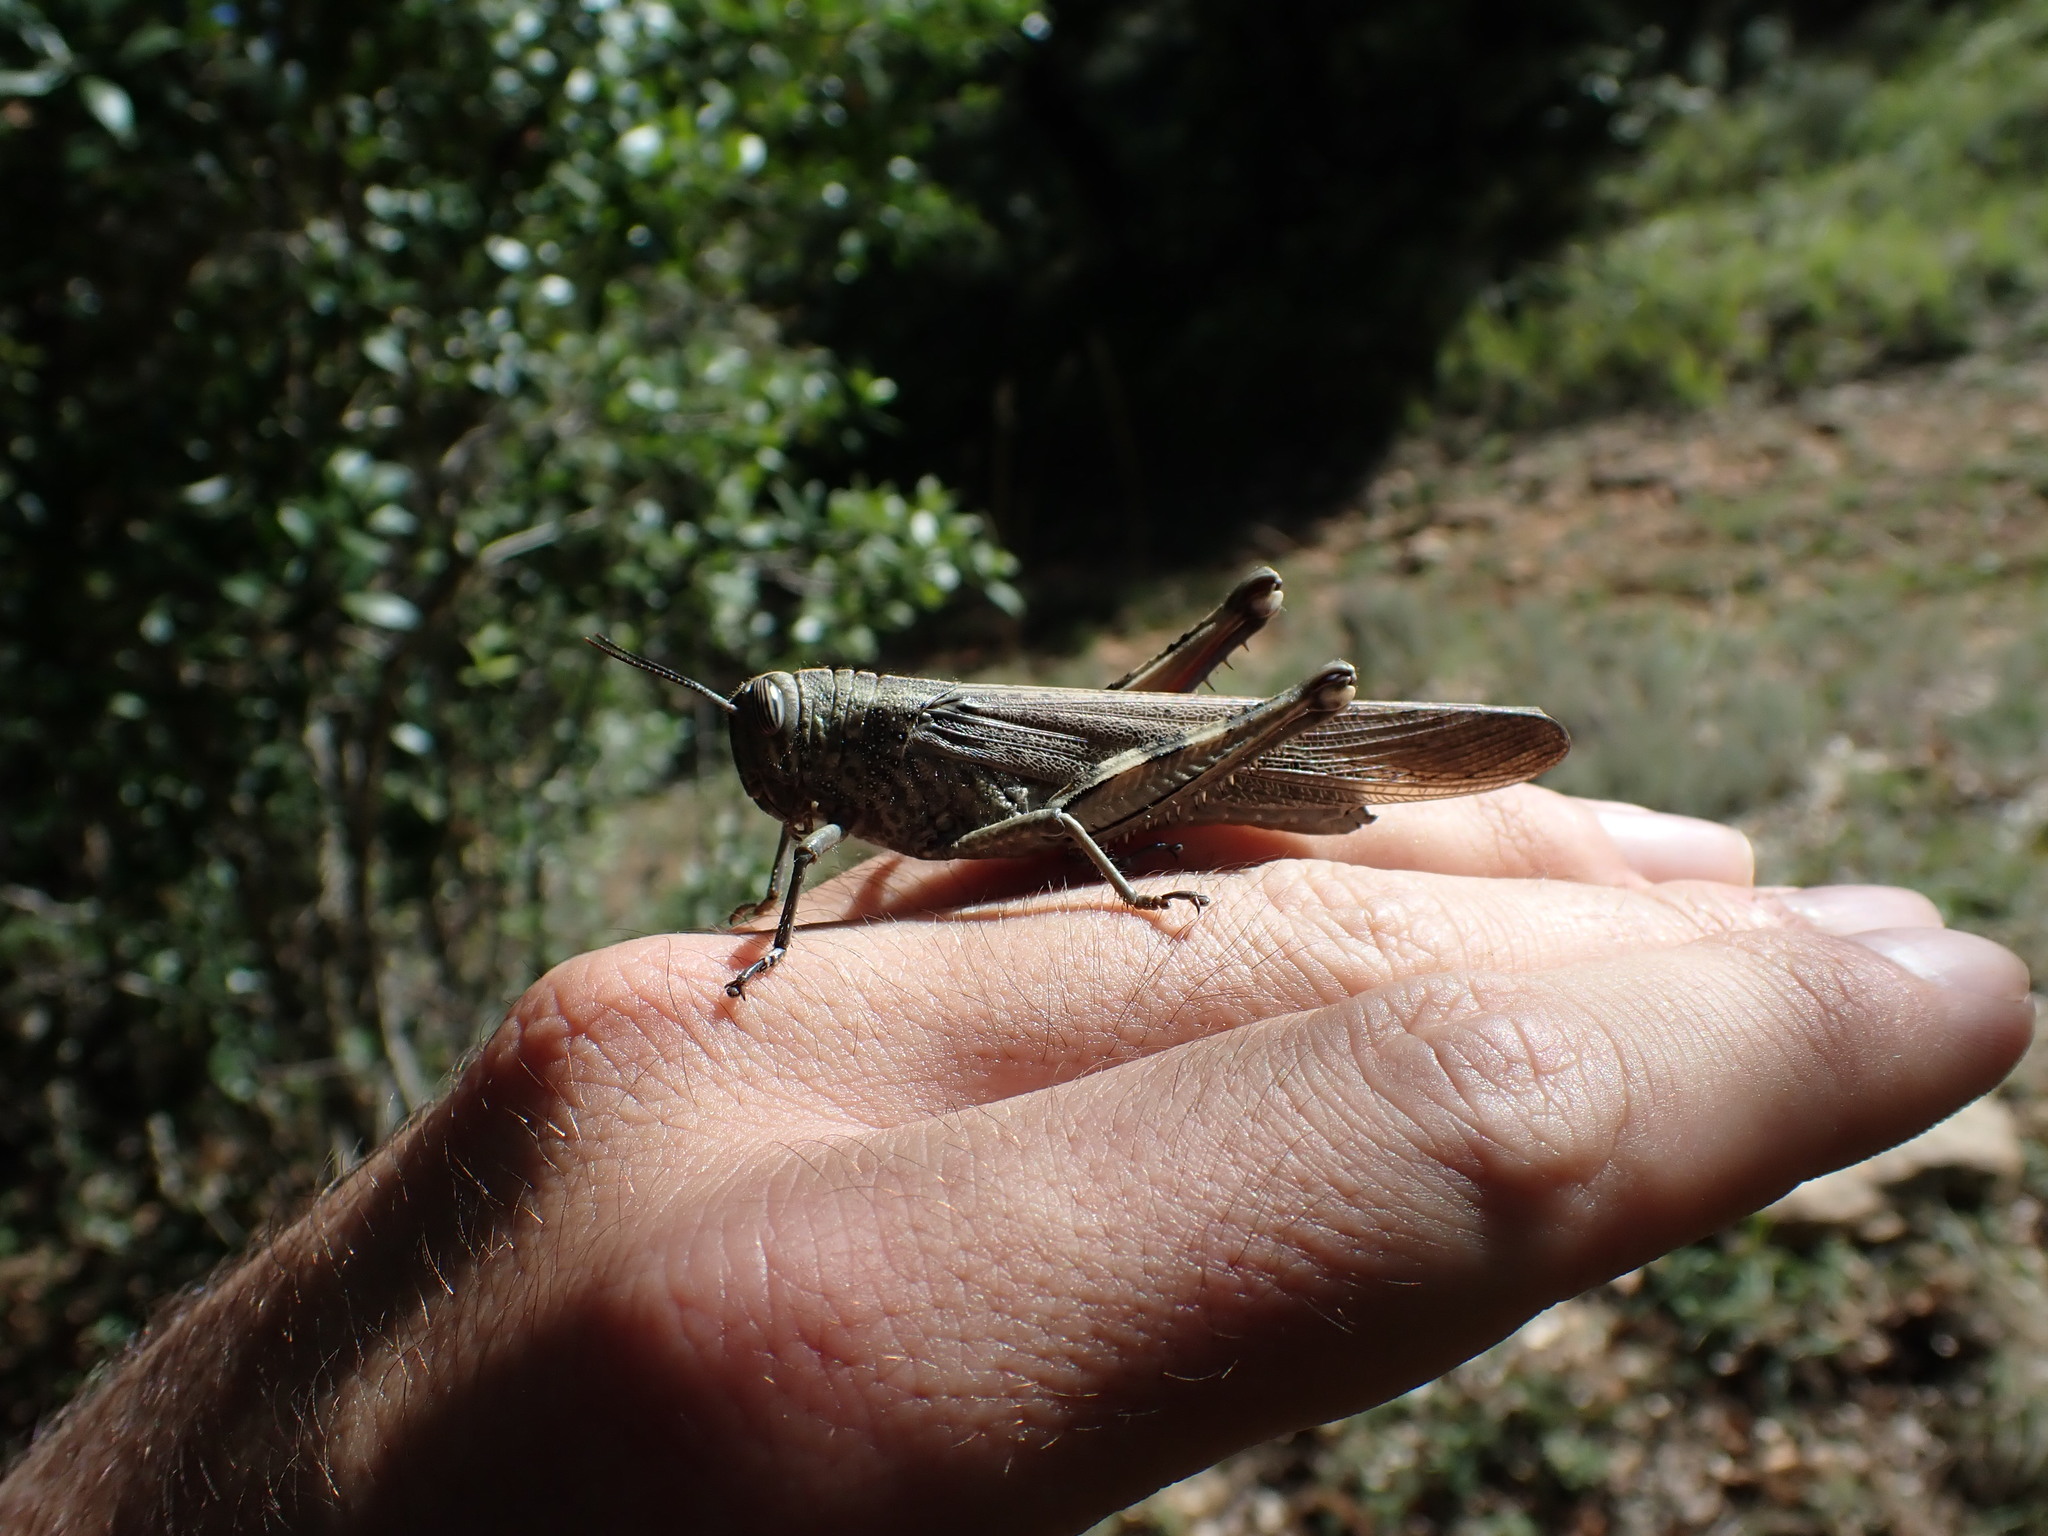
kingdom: Animalia
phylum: Arthropoda
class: Insecta
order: Orthoptera
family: Acrididae
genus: Anacridium
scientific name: Anacridium aegyptium
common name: Egyptian grasshopper
